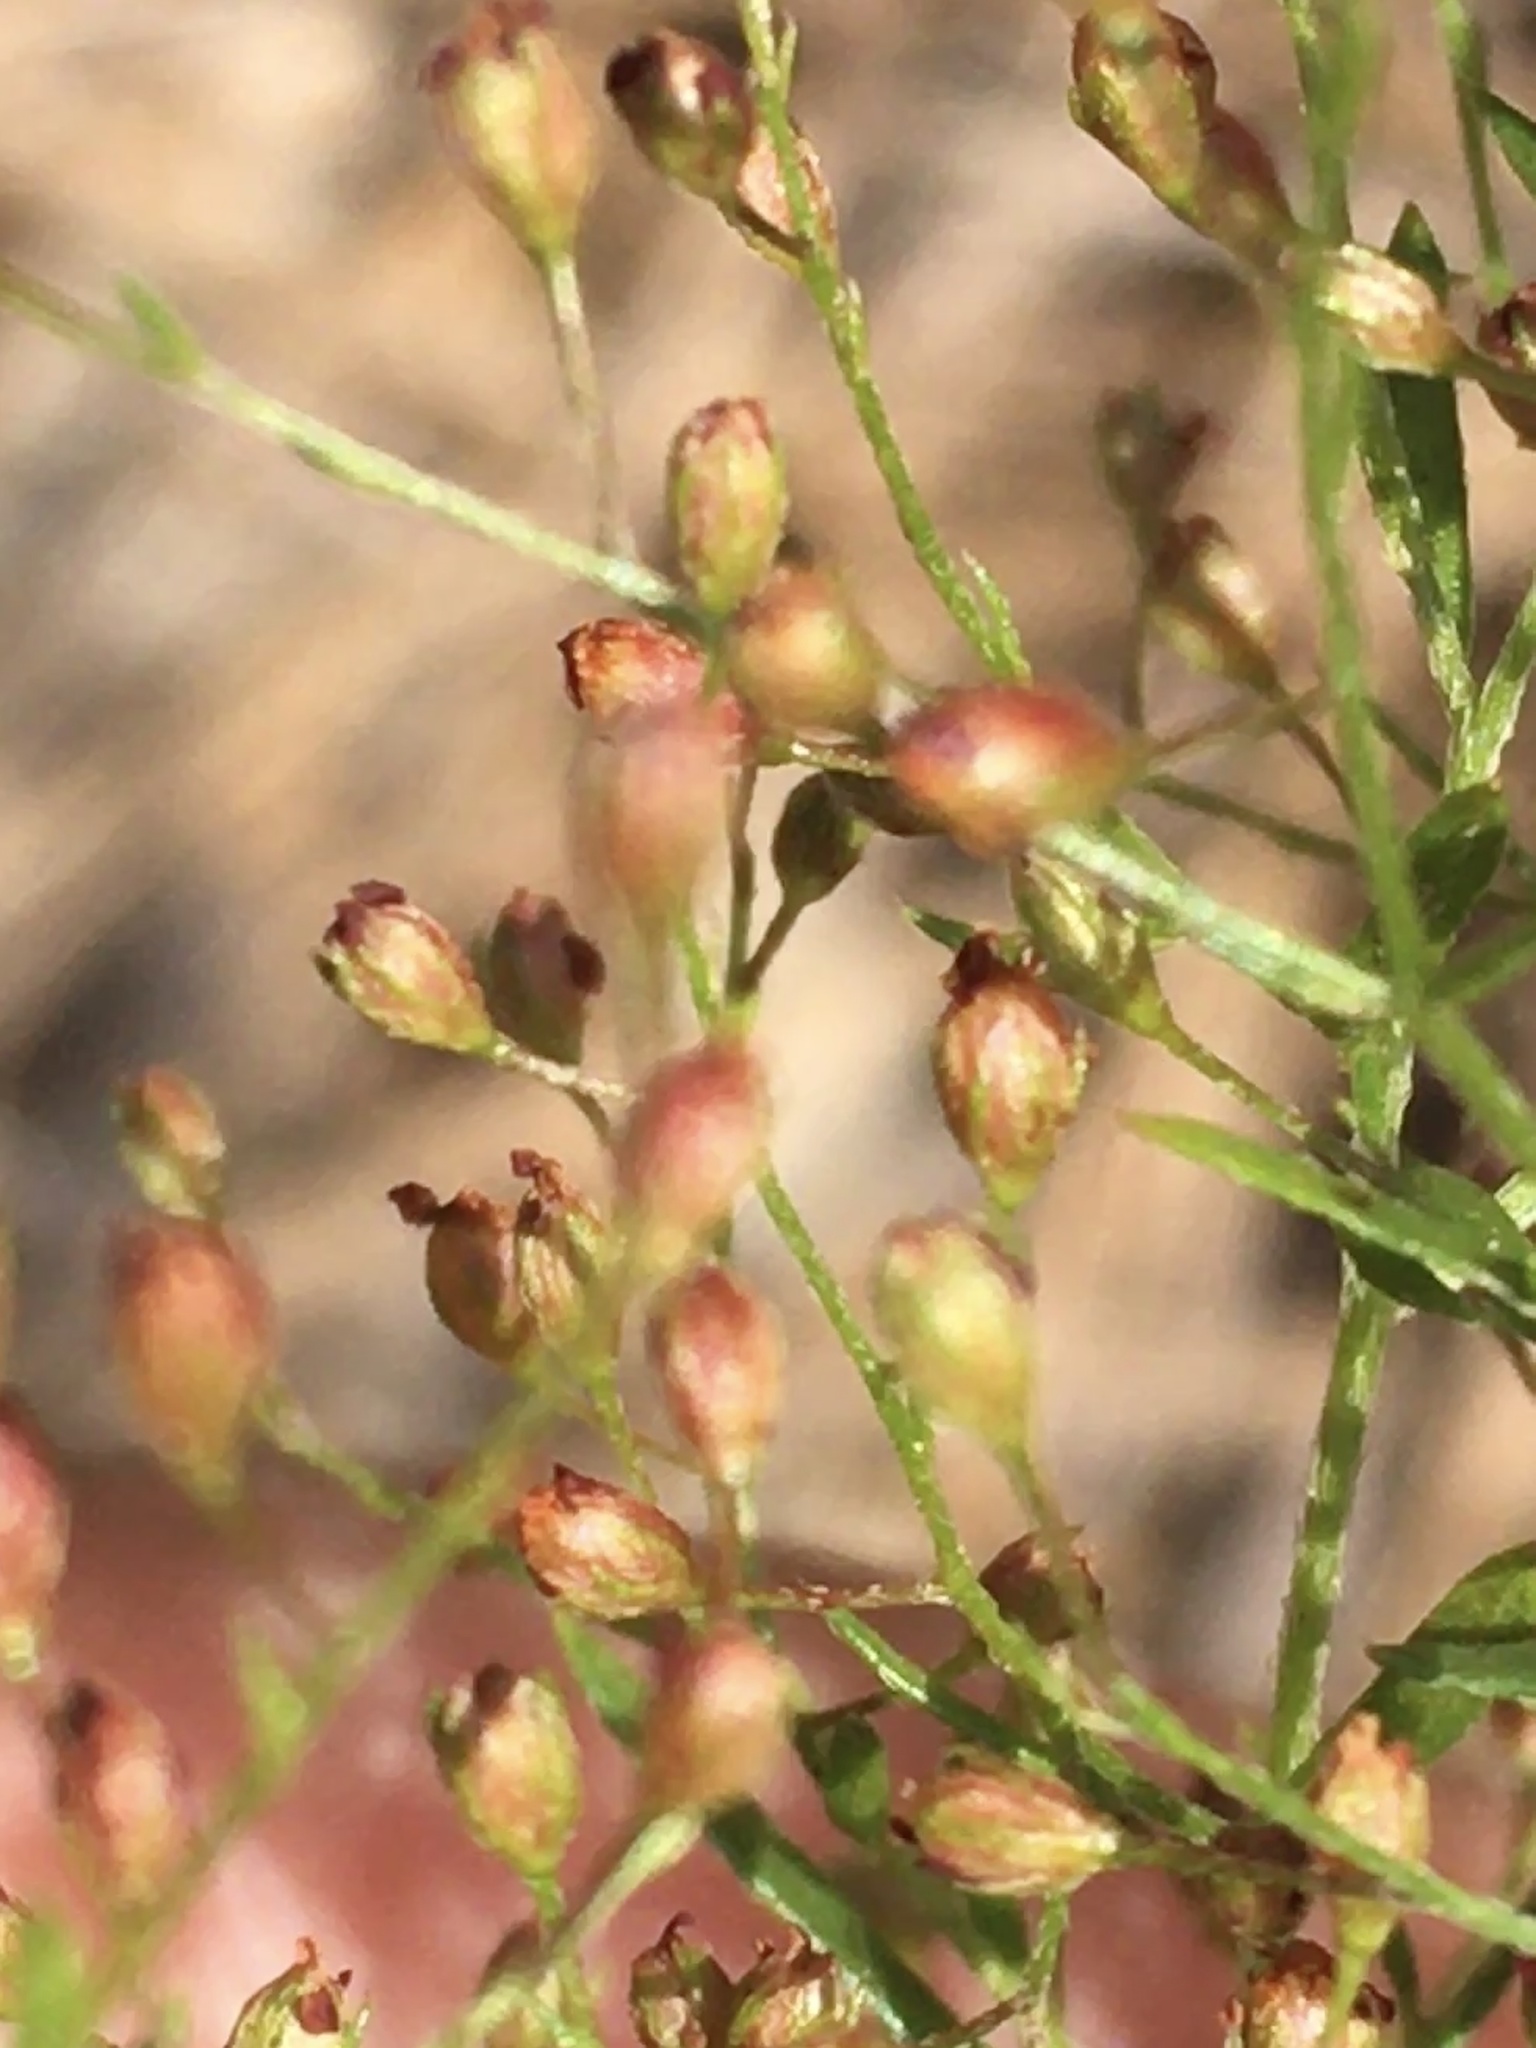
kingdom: Plantae
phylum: Tracheophyta
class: Magnoliopsida
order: Malvales
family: Cistaceae
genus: Lechea
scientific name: Lechea racemulosa
